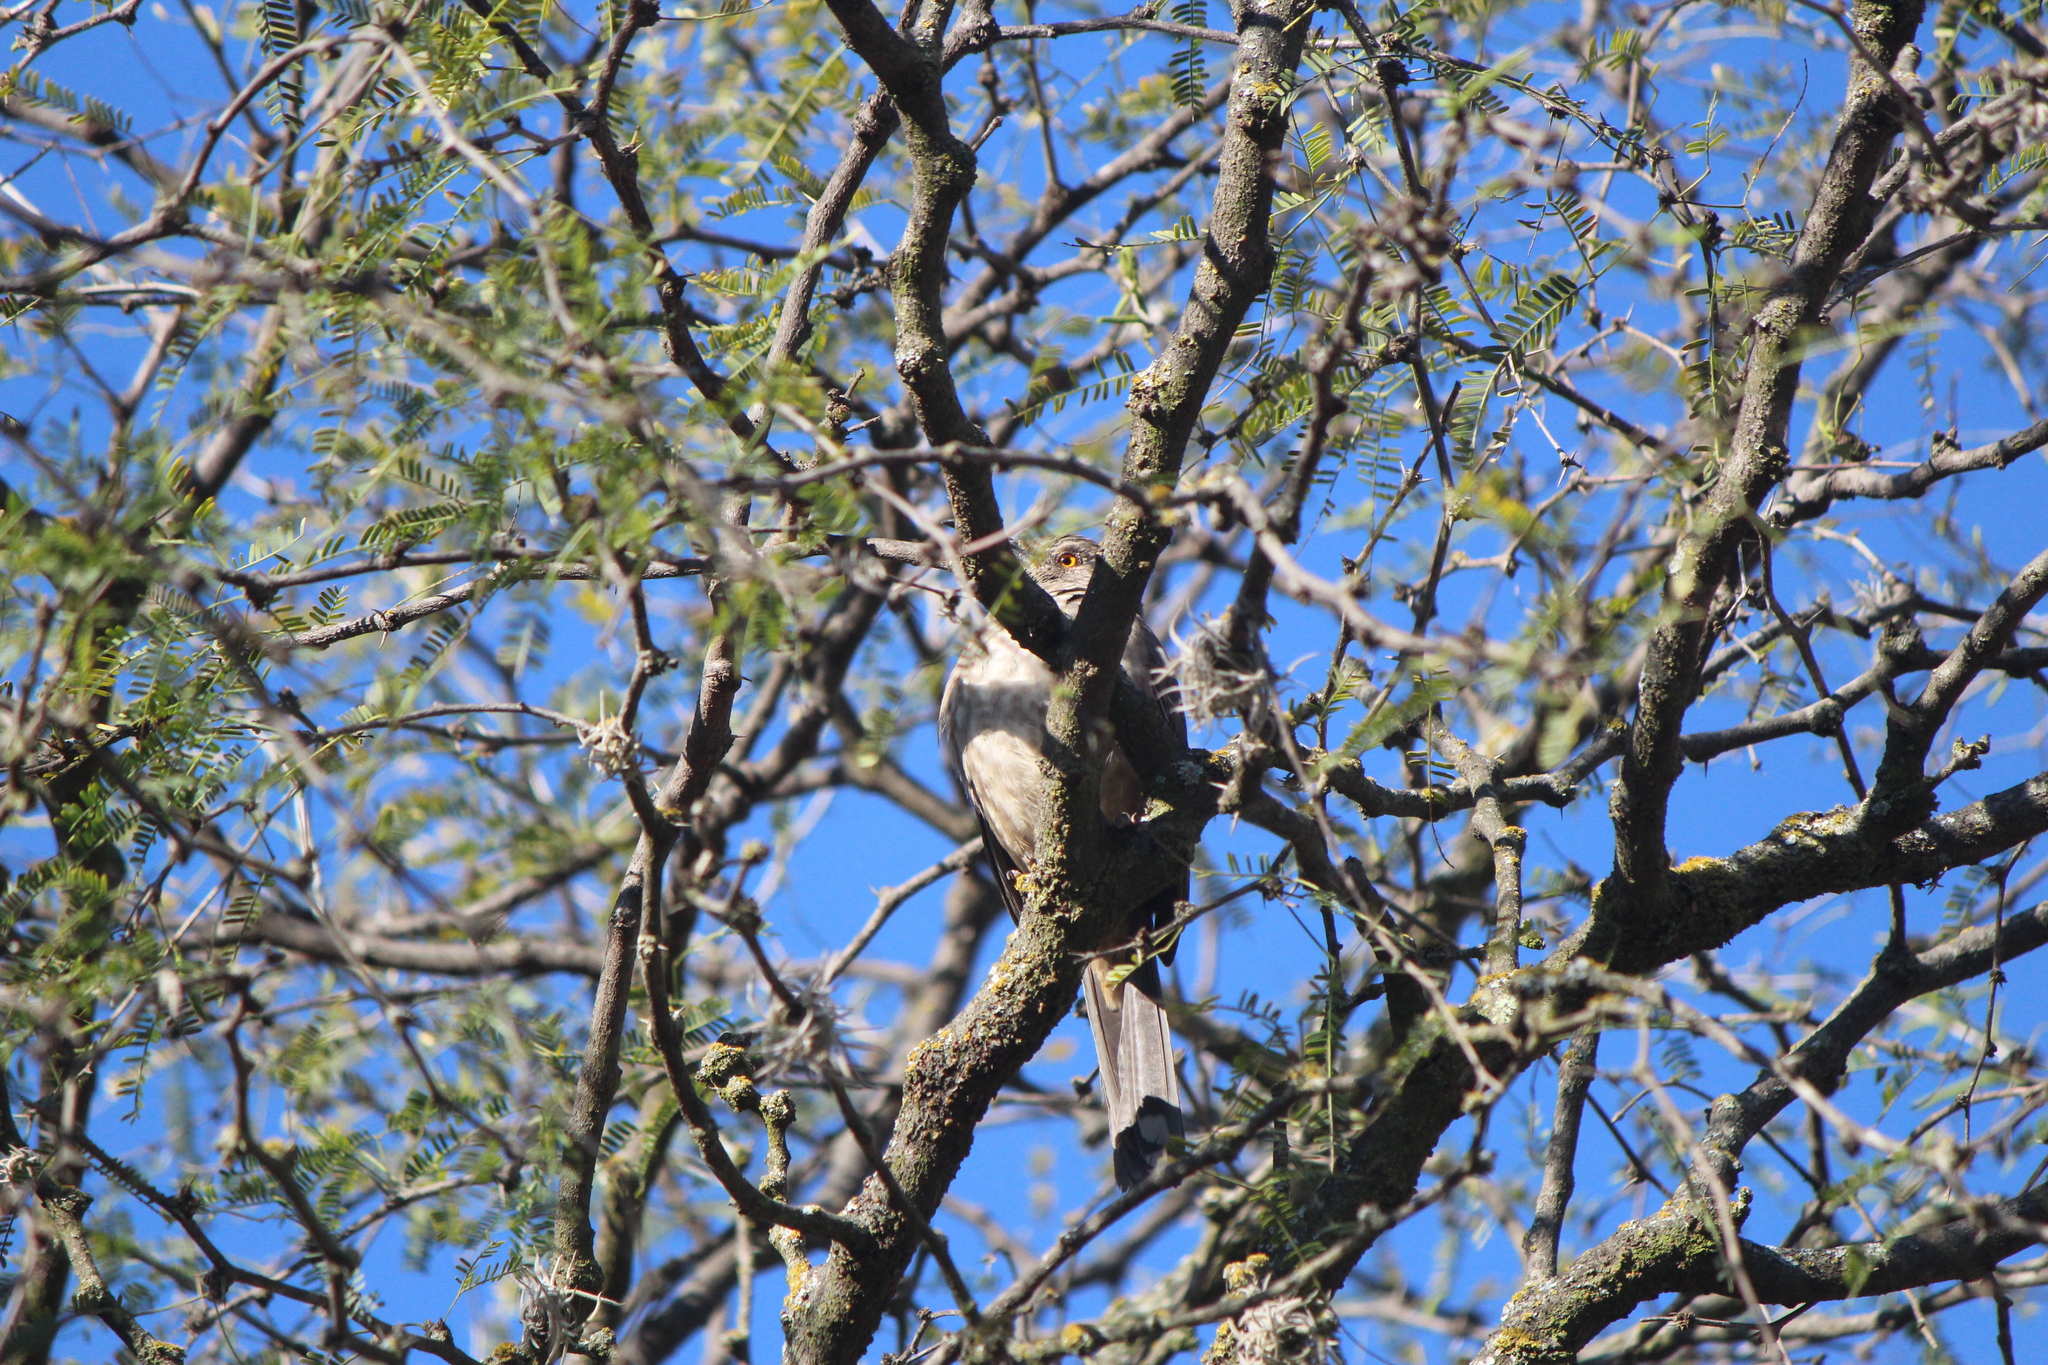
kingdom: Animalia
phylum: Chordata
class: Aves
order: Passeriformes
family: Mimidae
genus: Toxostoma
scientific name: Toxostoma curvirostre
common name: Curve-billed thrasher
